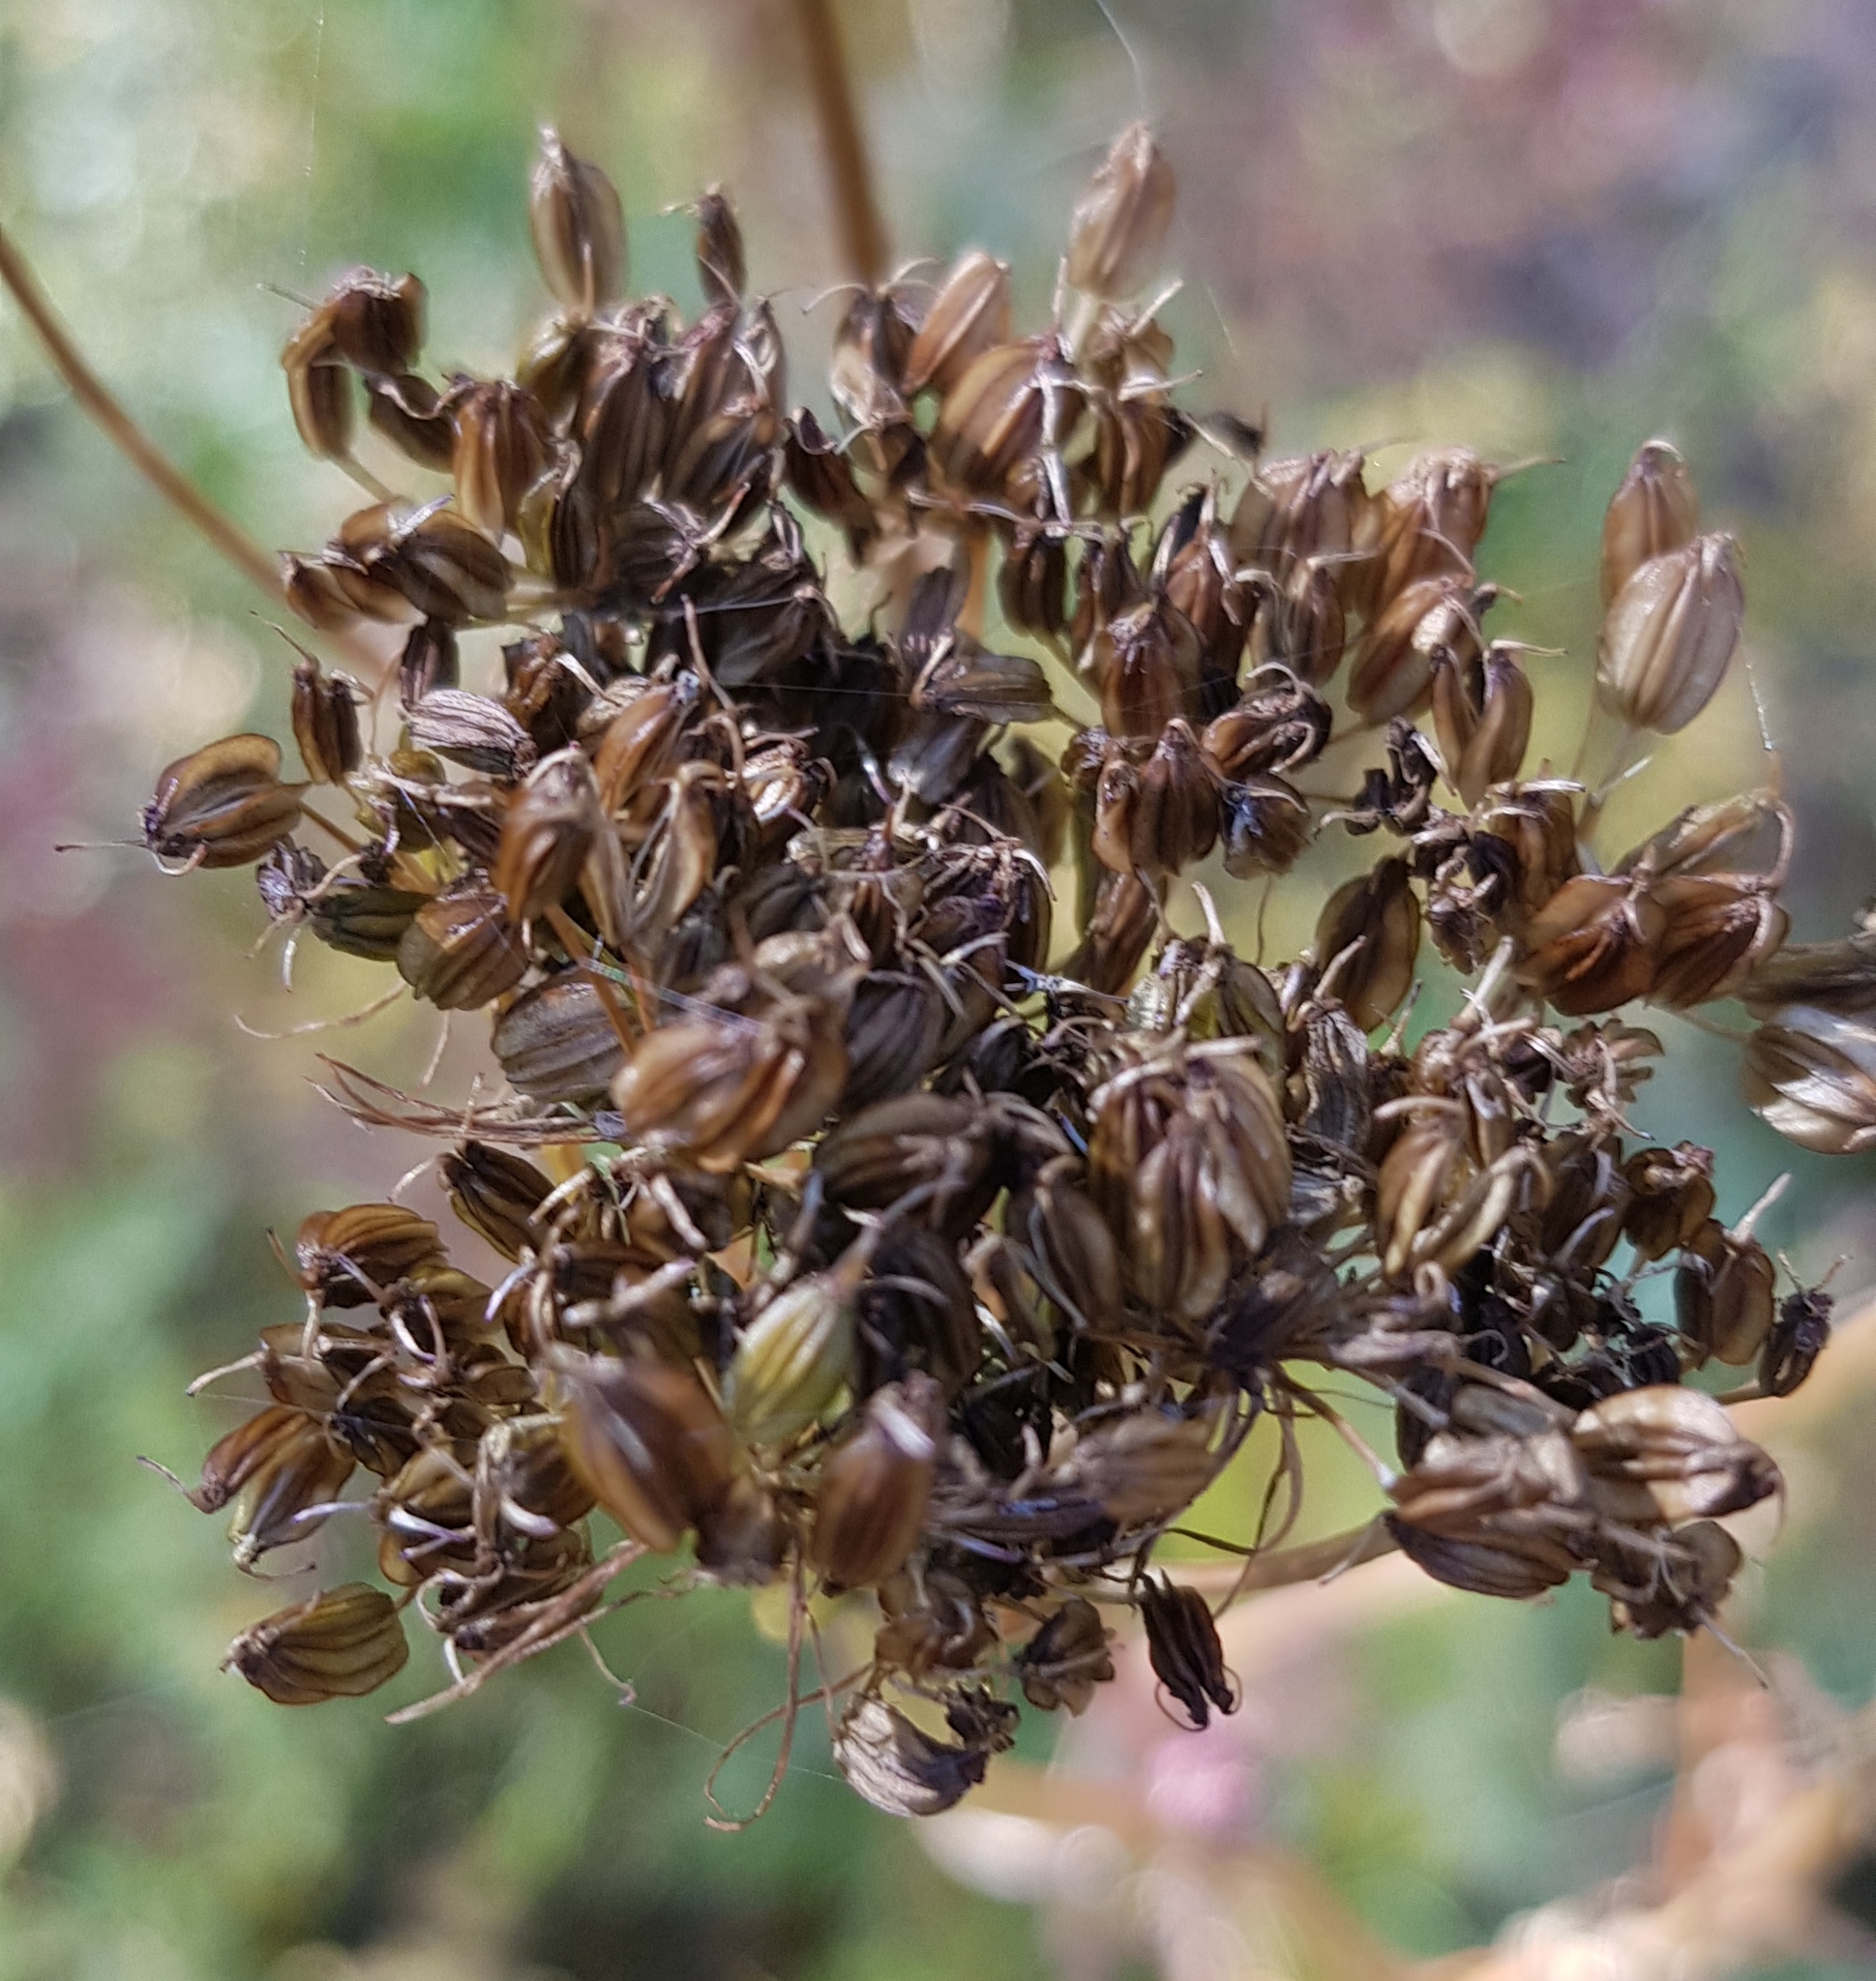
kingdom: Plantae
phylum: Tracheophyta
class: Magnoliopsida
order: Apiales
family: Apiaceae
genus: Cenolophium
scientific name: Cenolophium fischeri
